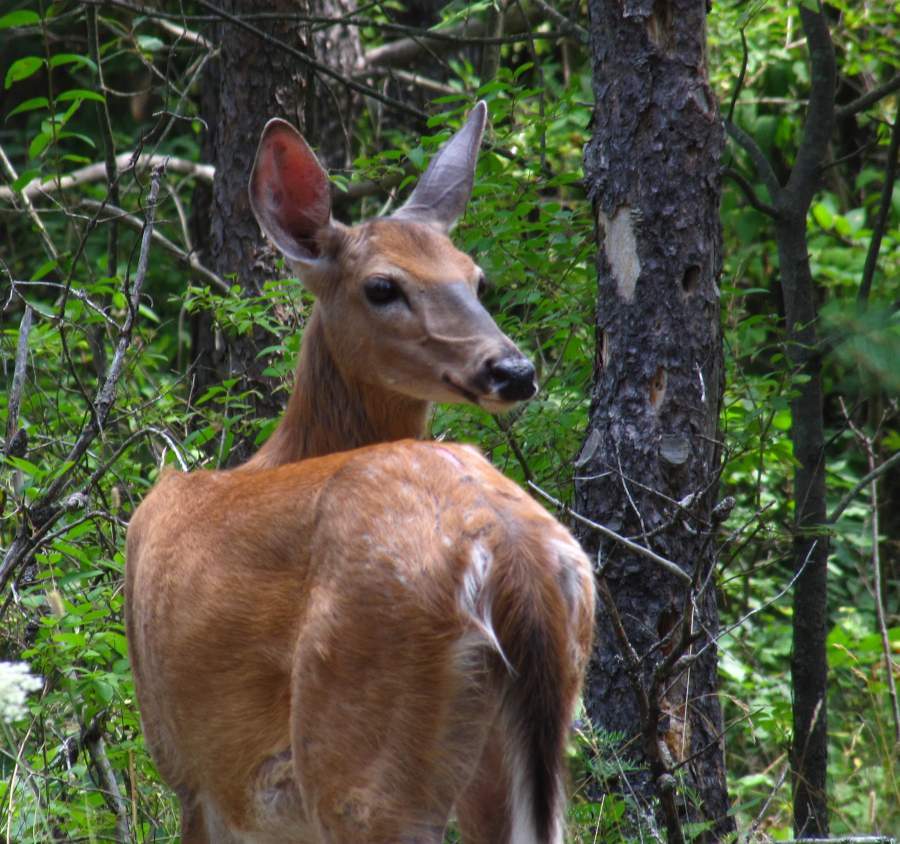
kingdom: Animalia
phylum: Chordata
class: Mammalia
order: Artiodactyla
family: Cervidae
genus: Odocoileus
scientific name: Odocoileus virginianus
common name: White-tailed deer
